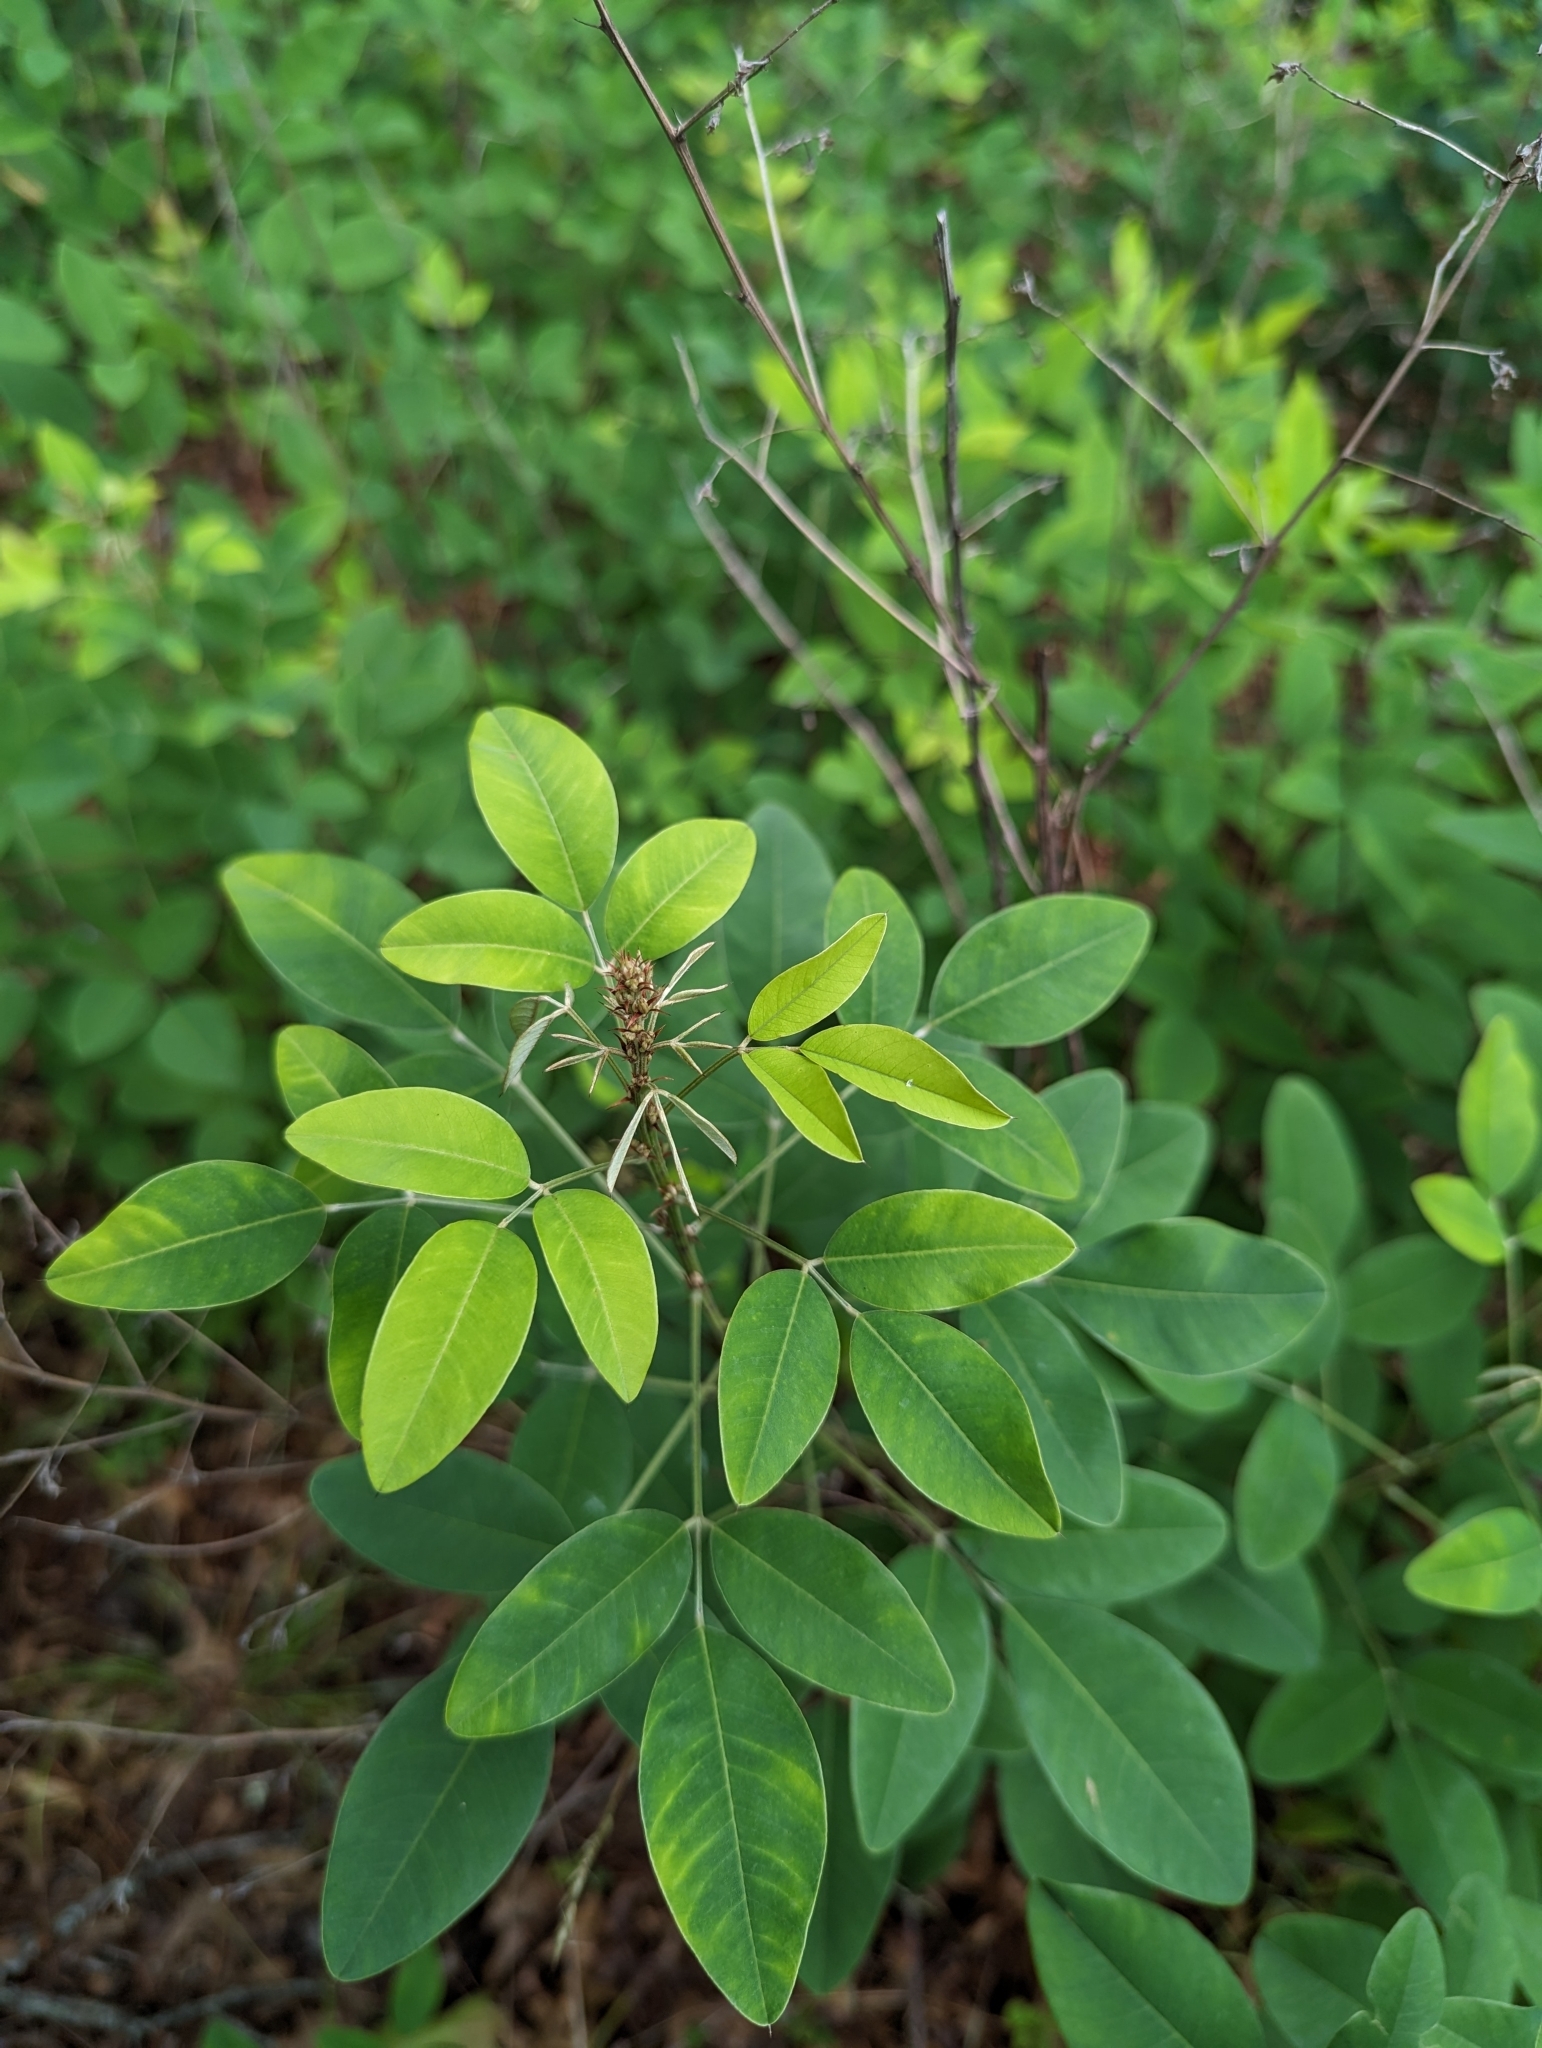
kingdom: Plantae
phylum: Tracheophyta
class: Magnoliopsida
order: Fabales
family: Fabaceae
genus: Lespedeza
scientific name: Lespedeza bicolor
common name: Shrub lespedeza
